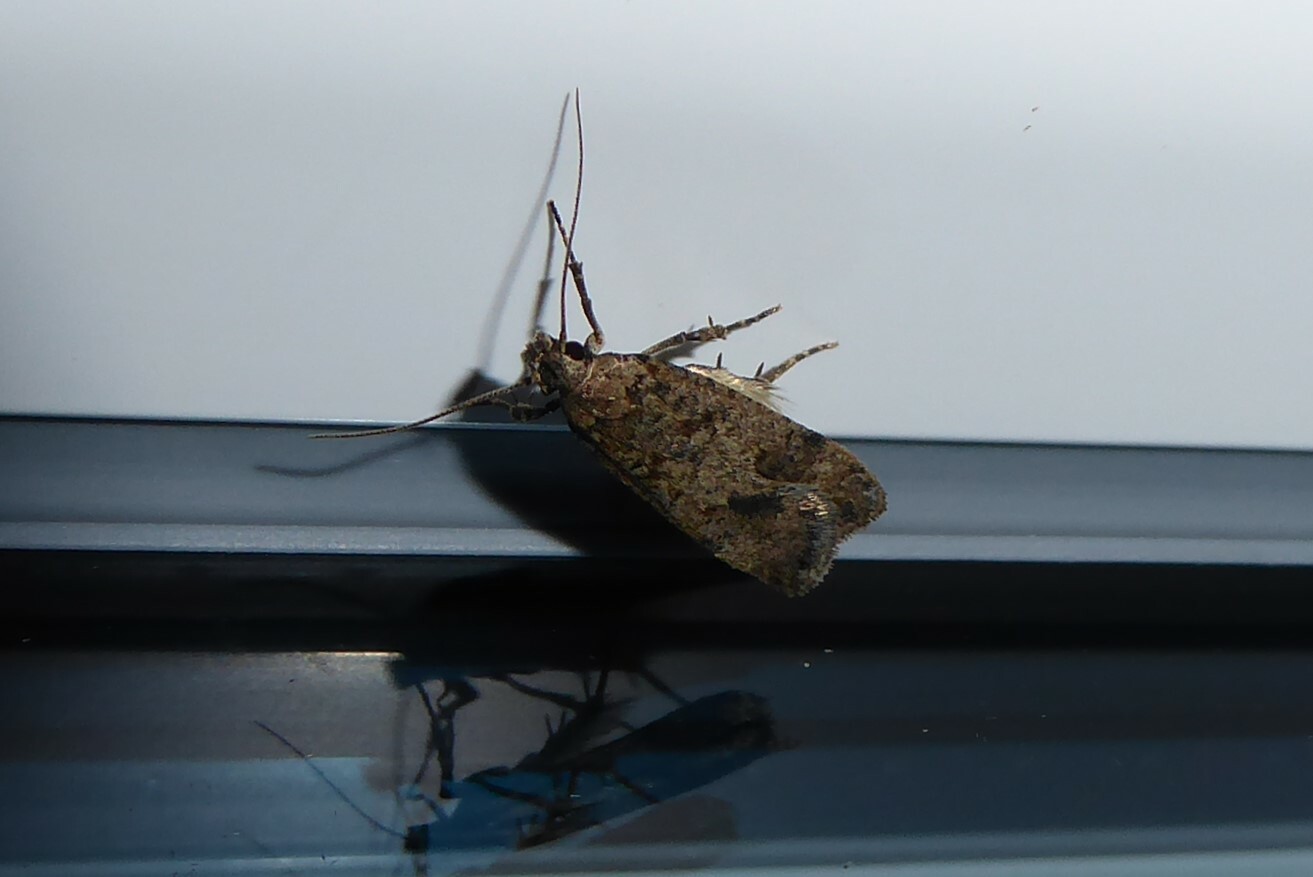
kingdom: Animalia
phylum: Arthropoda
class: Insecta
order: Lepidoptera
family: Gelechiidae
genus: Anisoplaca
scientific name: Anisoplaca acrodactyla
